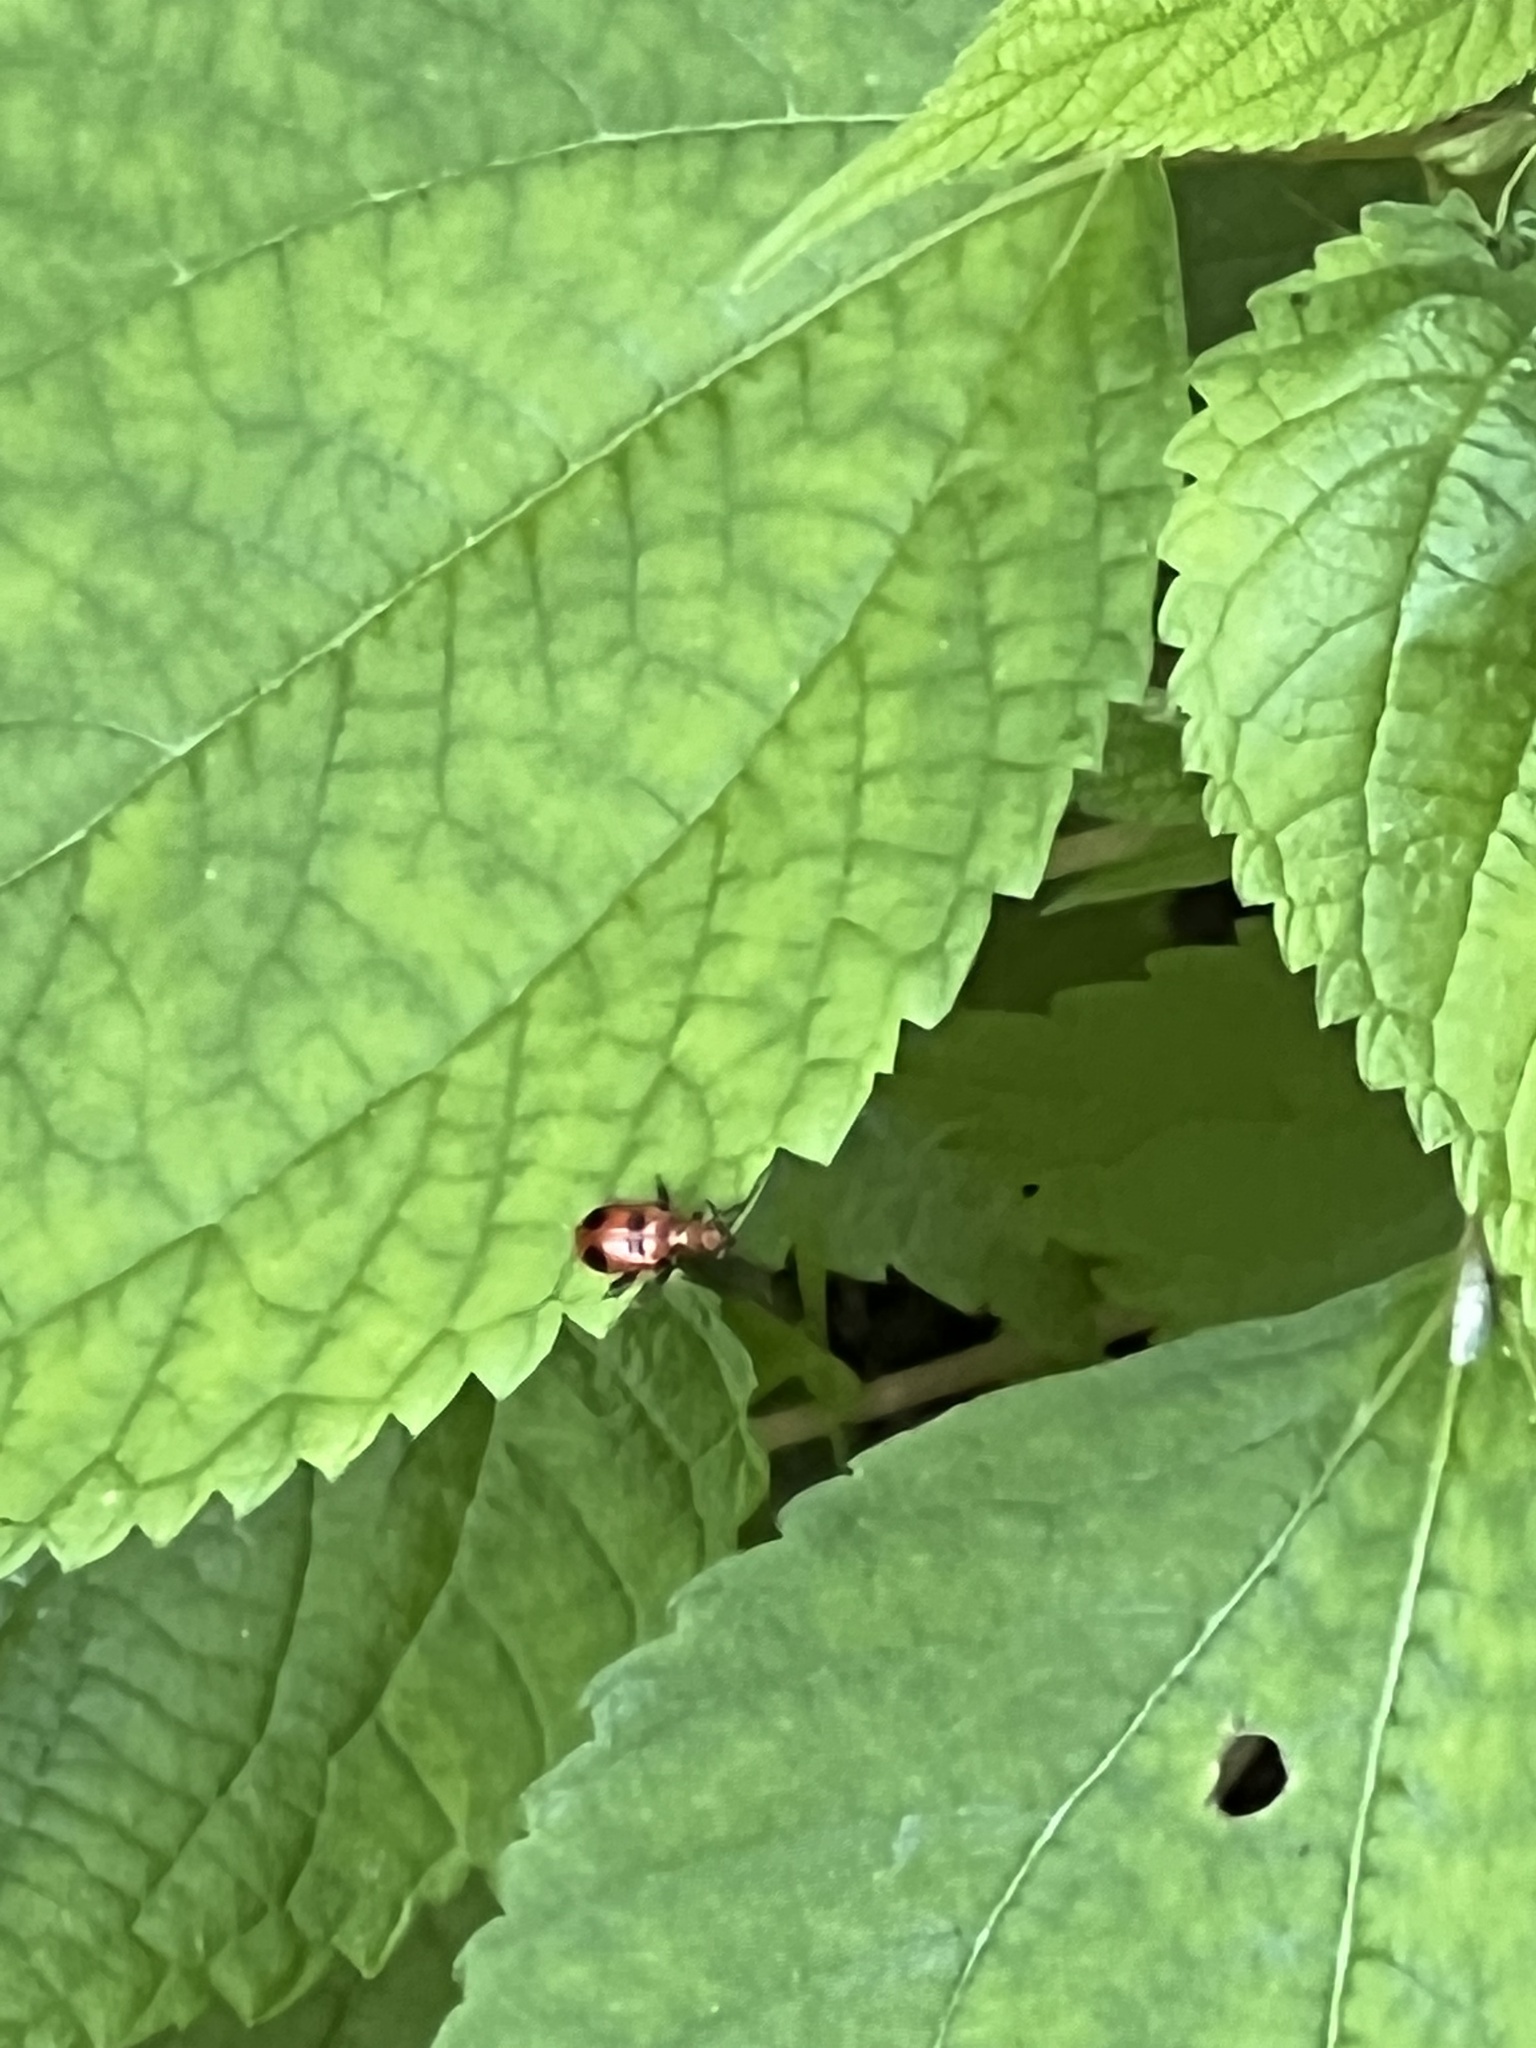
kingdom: Animalia
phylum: Arthropoda
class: Insecta
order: Coleoptera
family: Chrysomelidae
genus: Neolema
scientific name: Neolema sexpunctata
